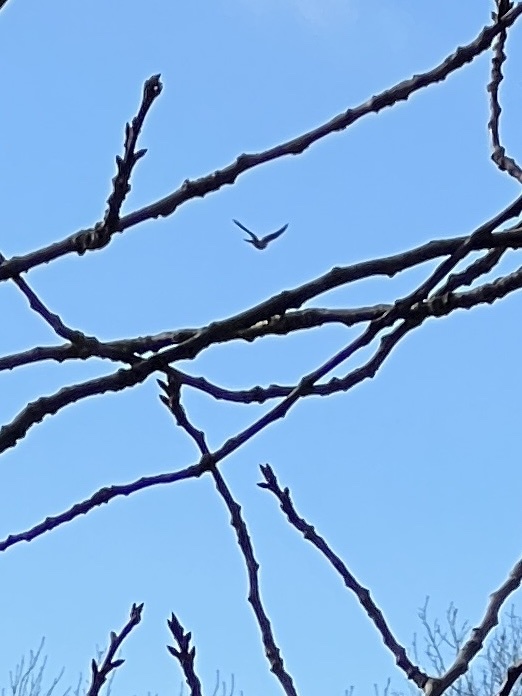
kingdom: Animalia
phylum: Chordata
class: Aves
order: Accipitriformes
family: Accipitridae
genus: Accipiter
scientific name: Accipiter nisus
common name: Eurasian sparrowhawk
